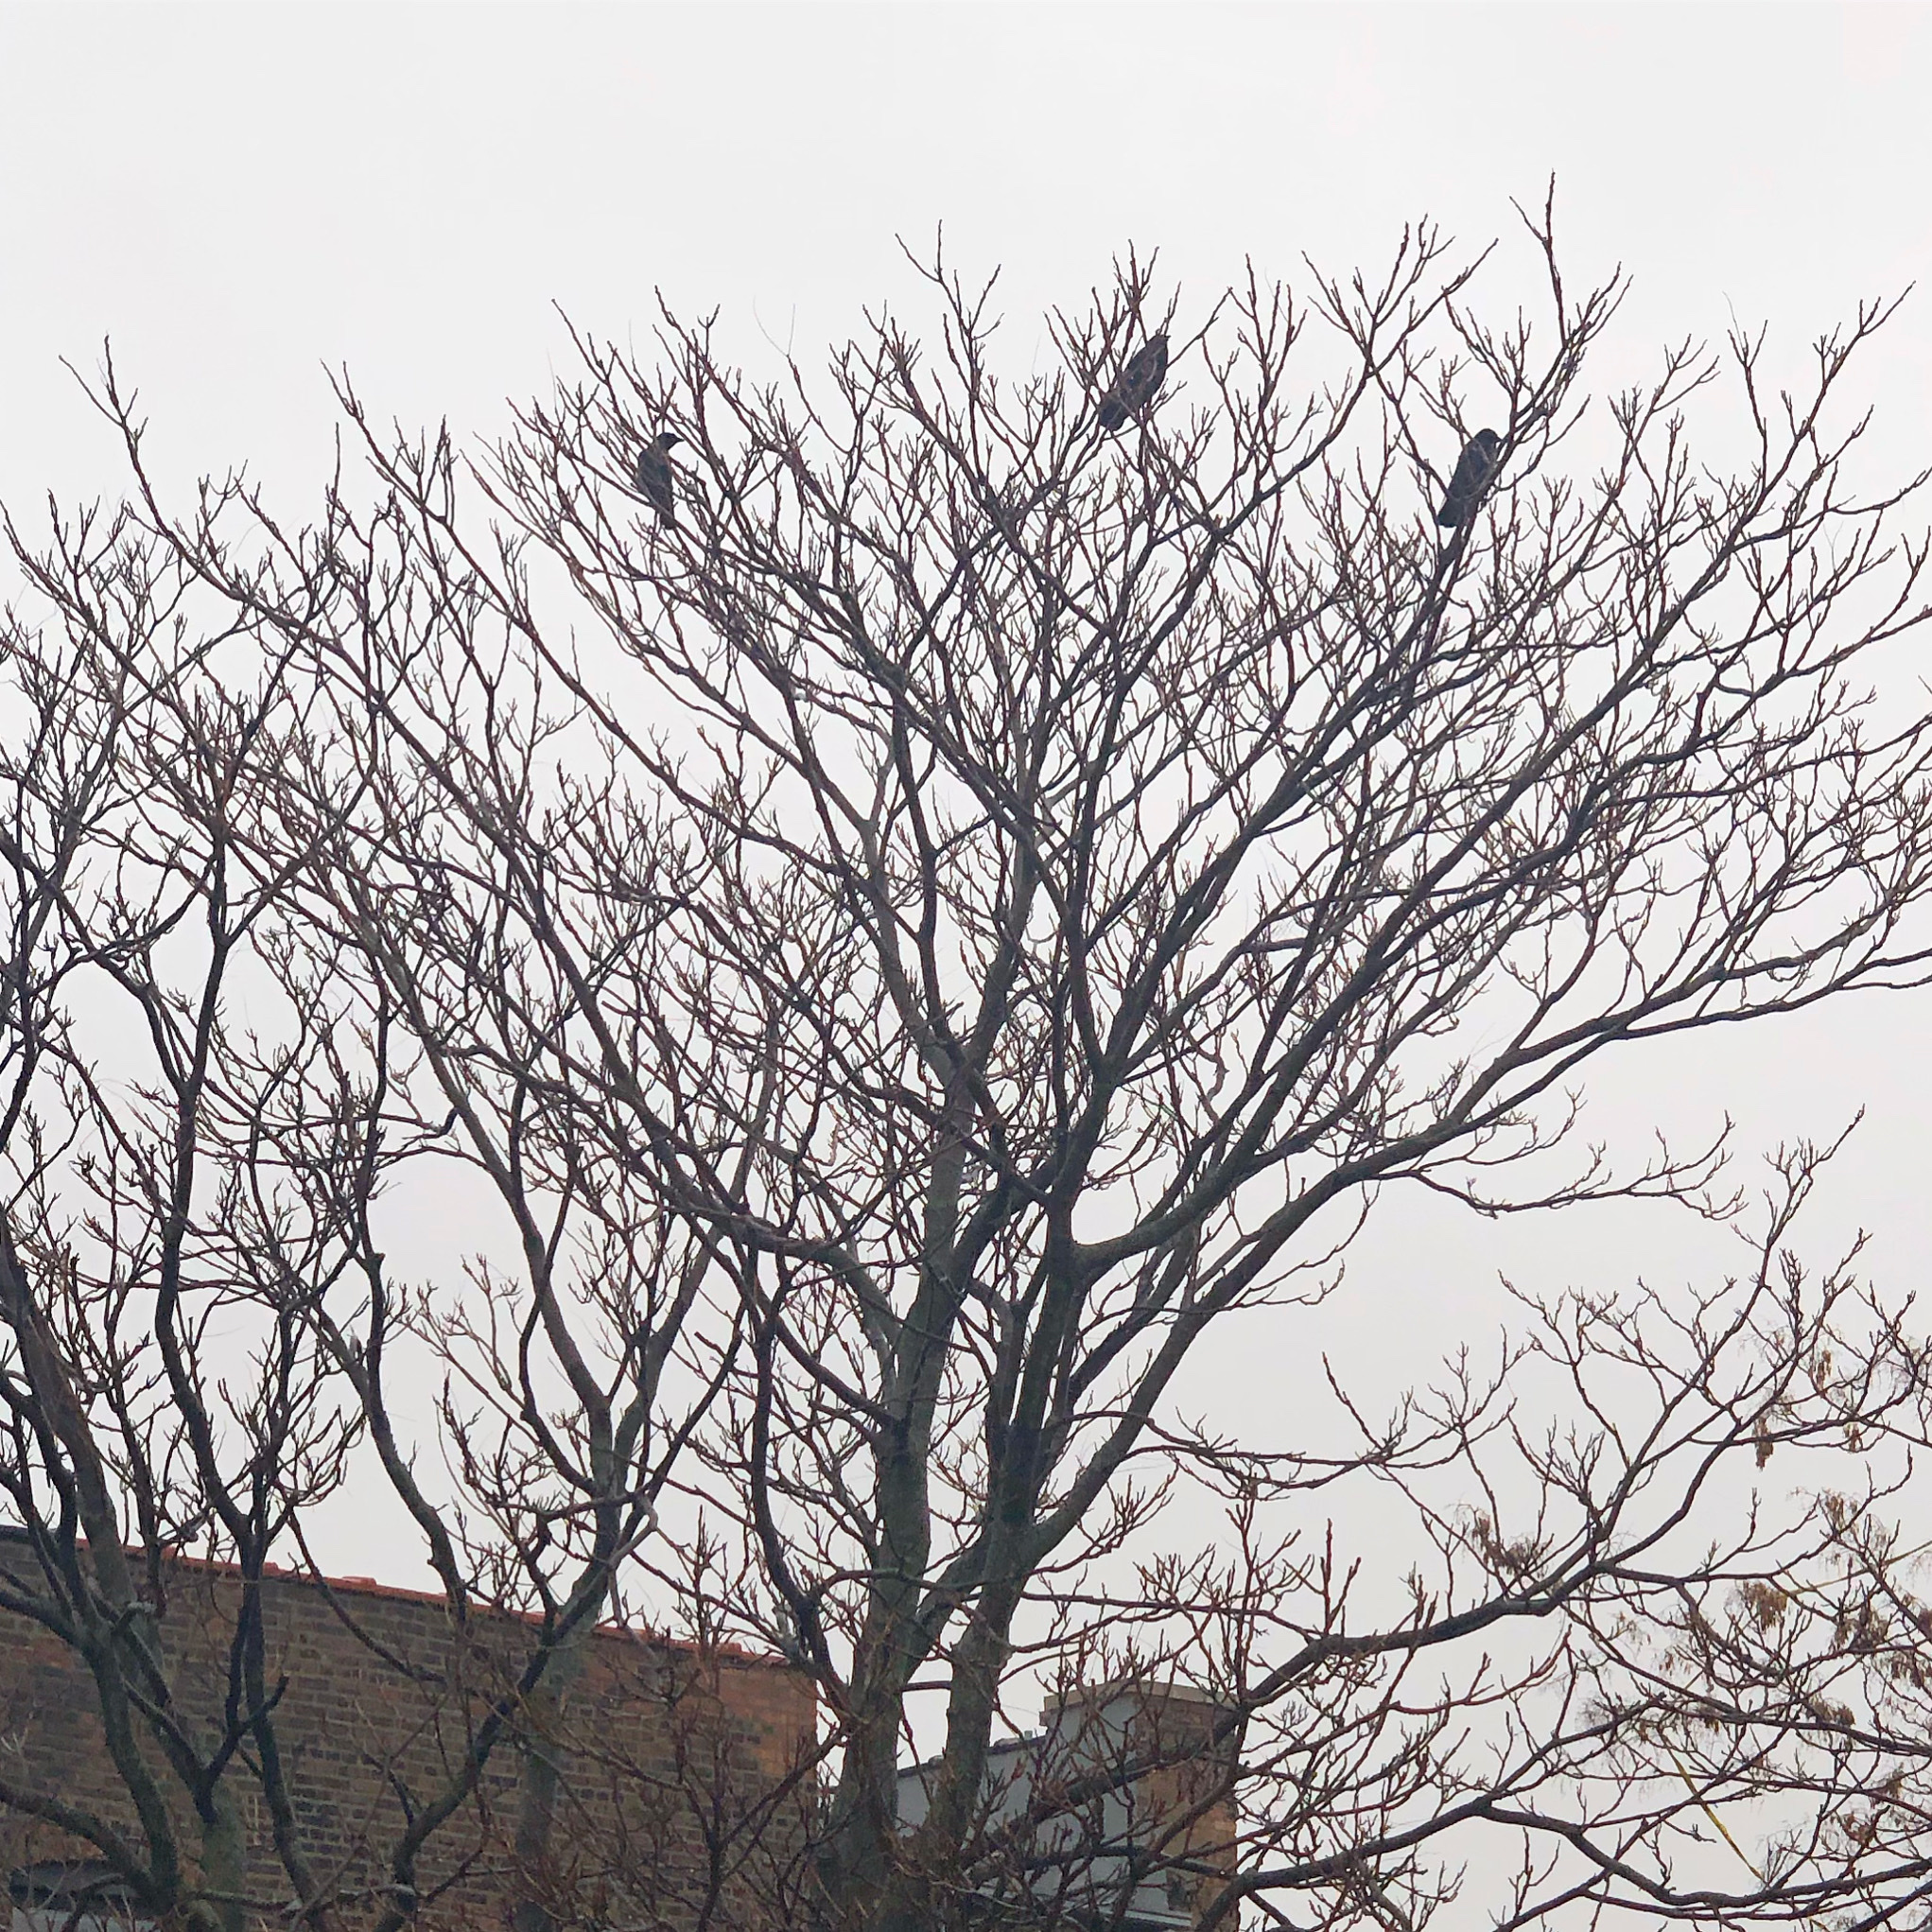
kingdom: Animalia
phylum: Chordata
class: Aves
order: Passeriformes
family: Corvidae
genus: Corvus
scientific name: Corvus brachyrhynchos
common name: American crow
